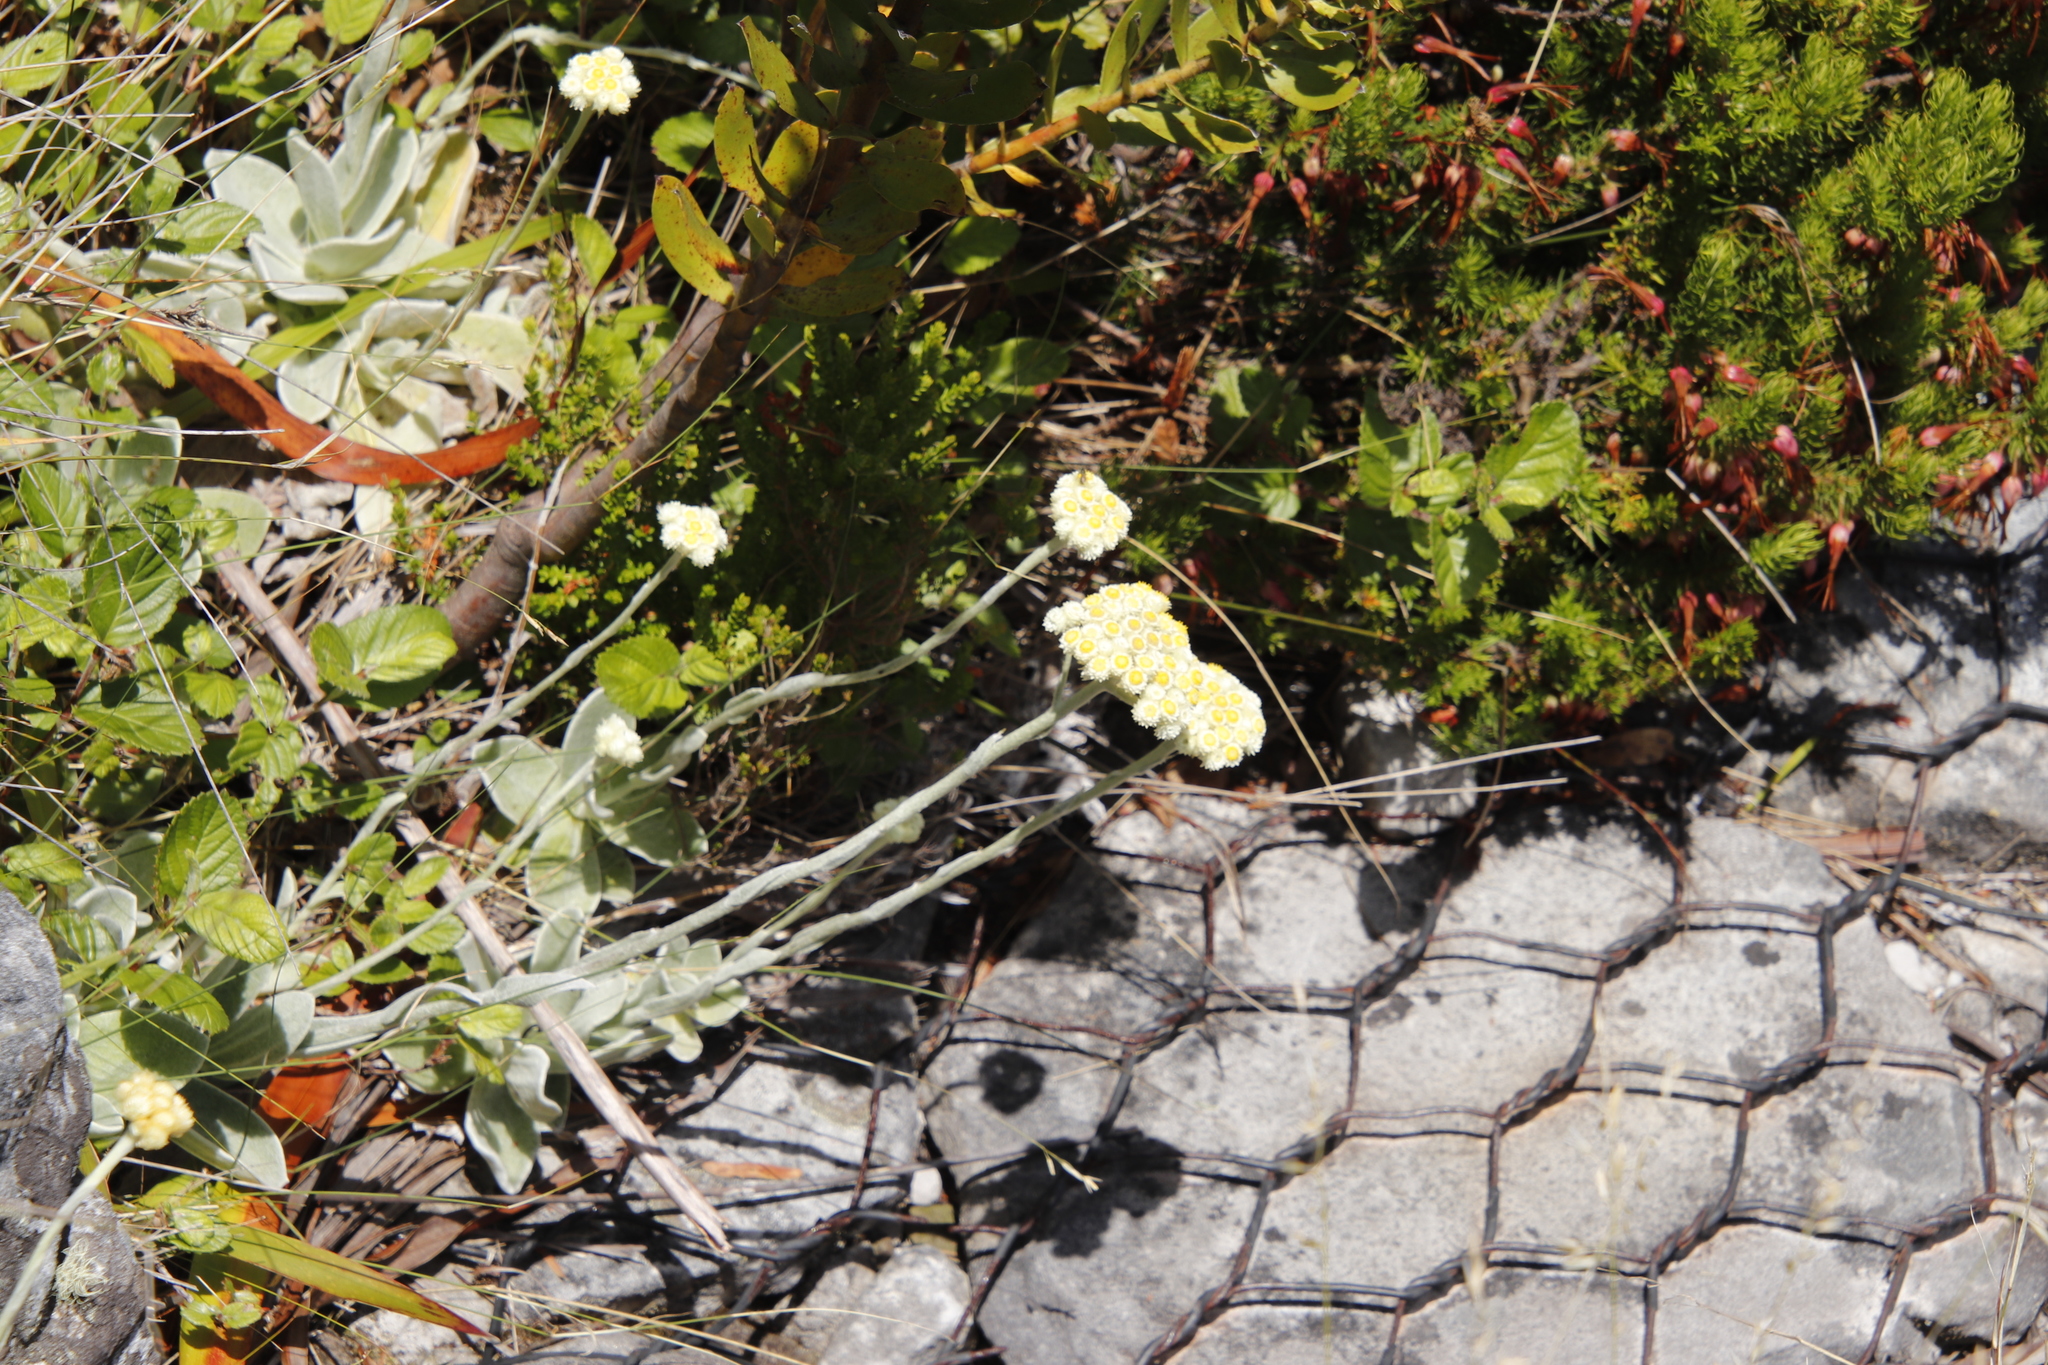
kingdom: Plantae
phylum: Tracheophyta
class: Magnoliopsida
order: Asterales
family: Asteraceae
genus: Helichrysum
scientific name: Helichrysum grandiflorum
